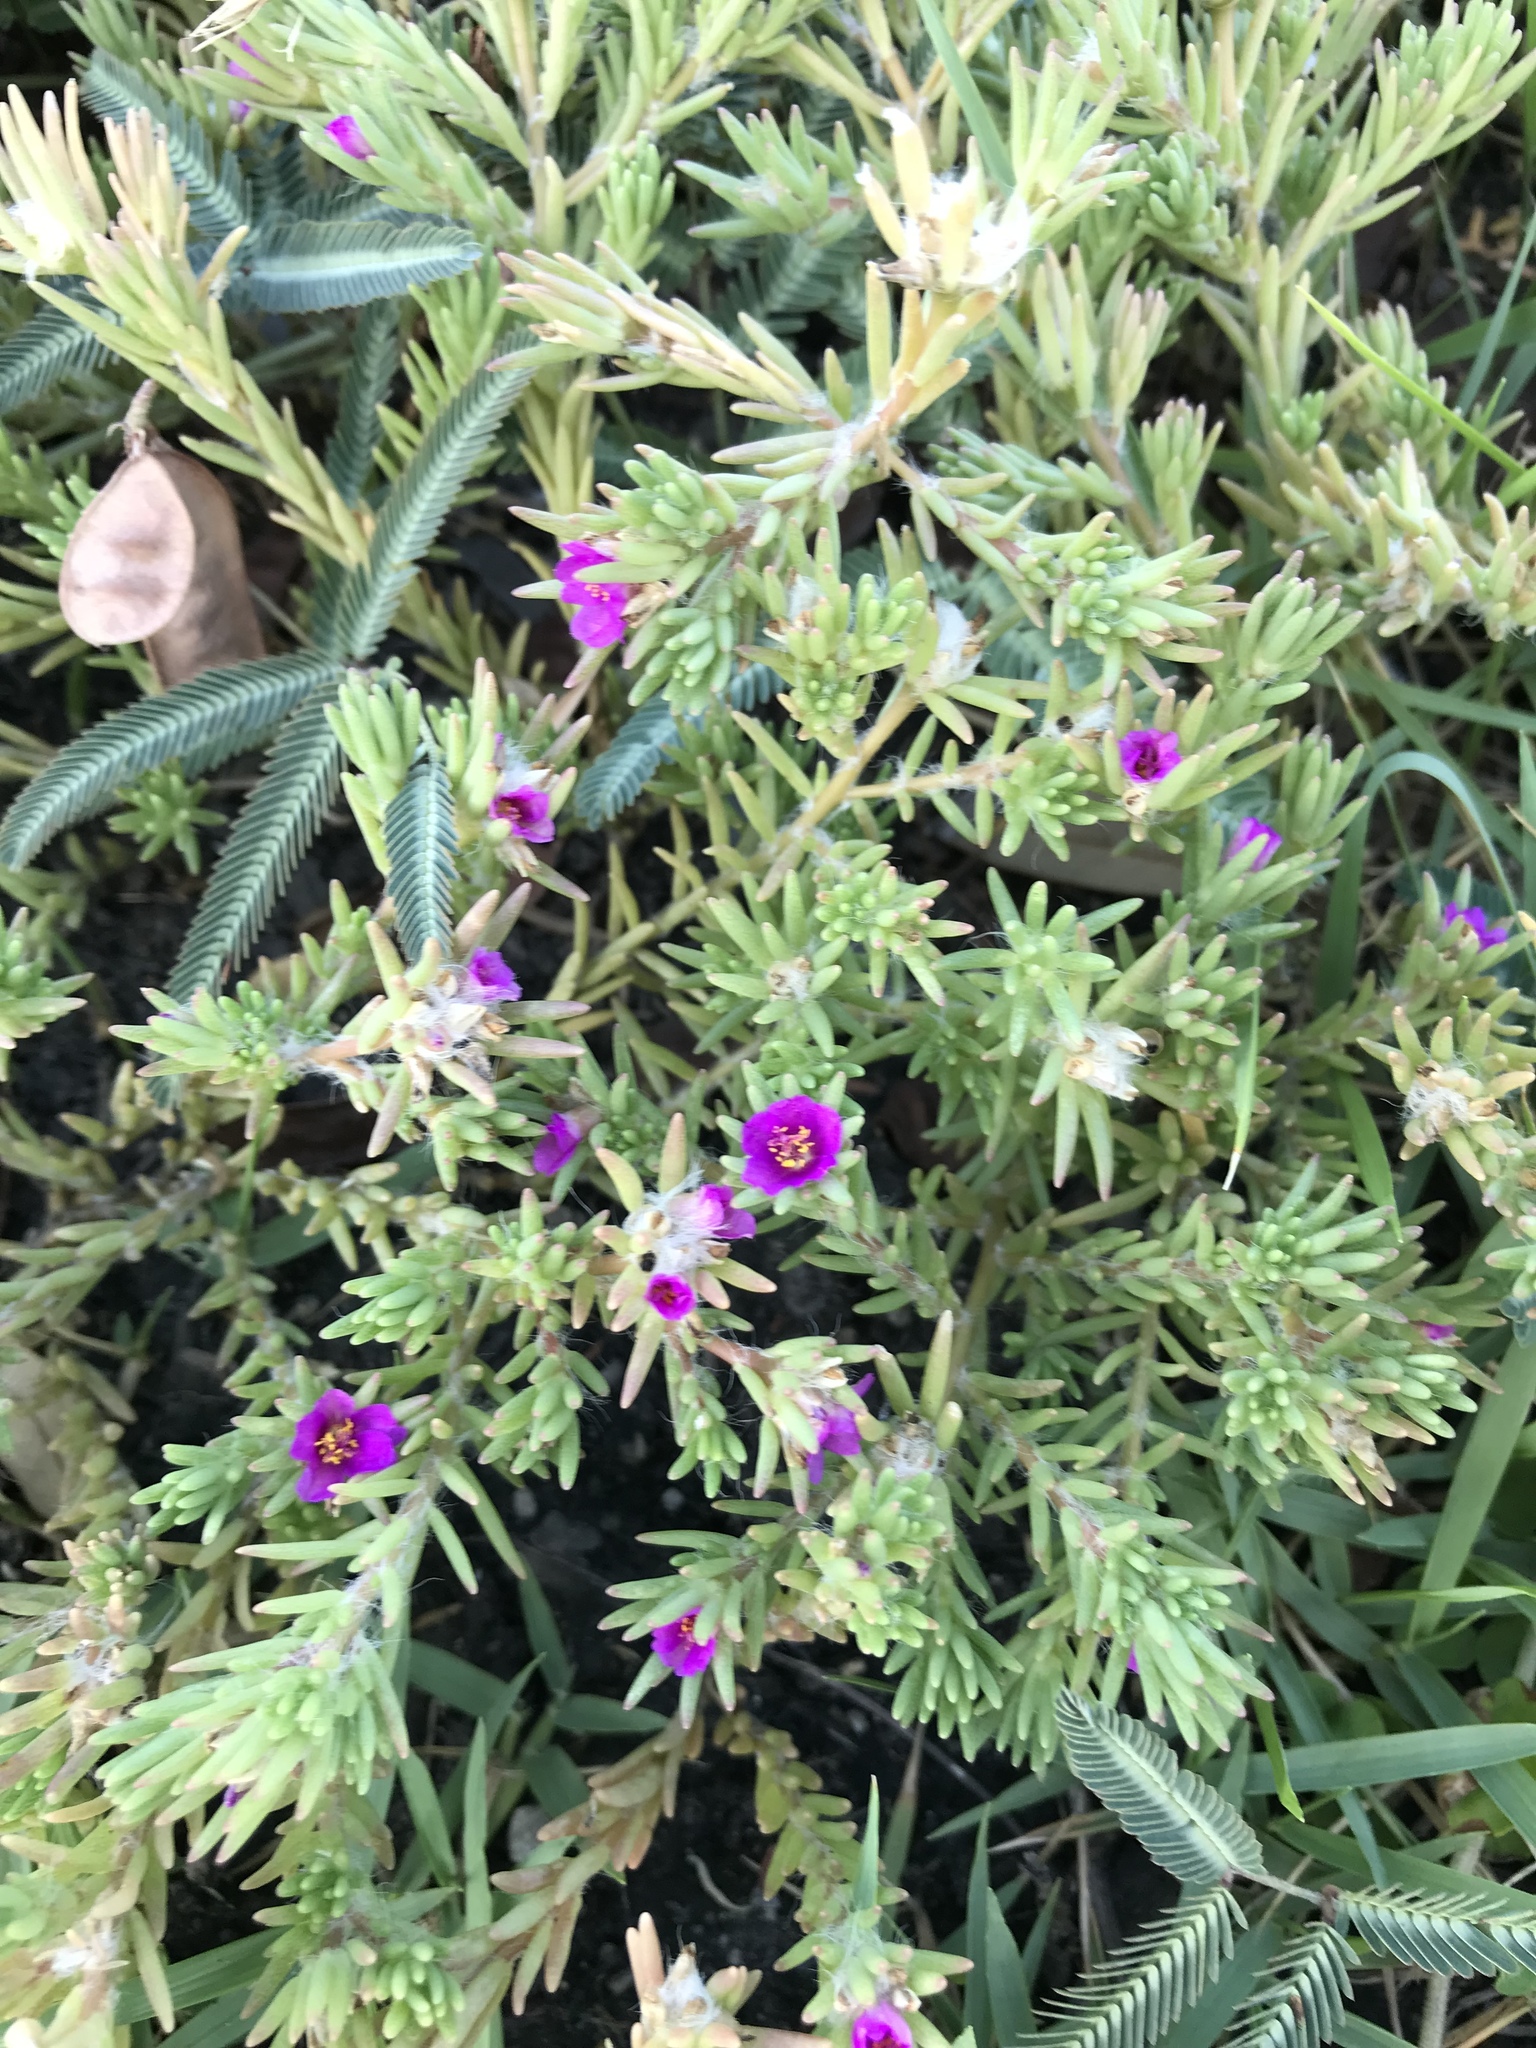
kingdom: Plantae
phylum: Tracheophyta
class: Magnoliopsida
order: Caryophyllales
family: Portulacaceae
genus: Portulaca
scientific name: Portulaca pilosa
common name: Kiss me quick
